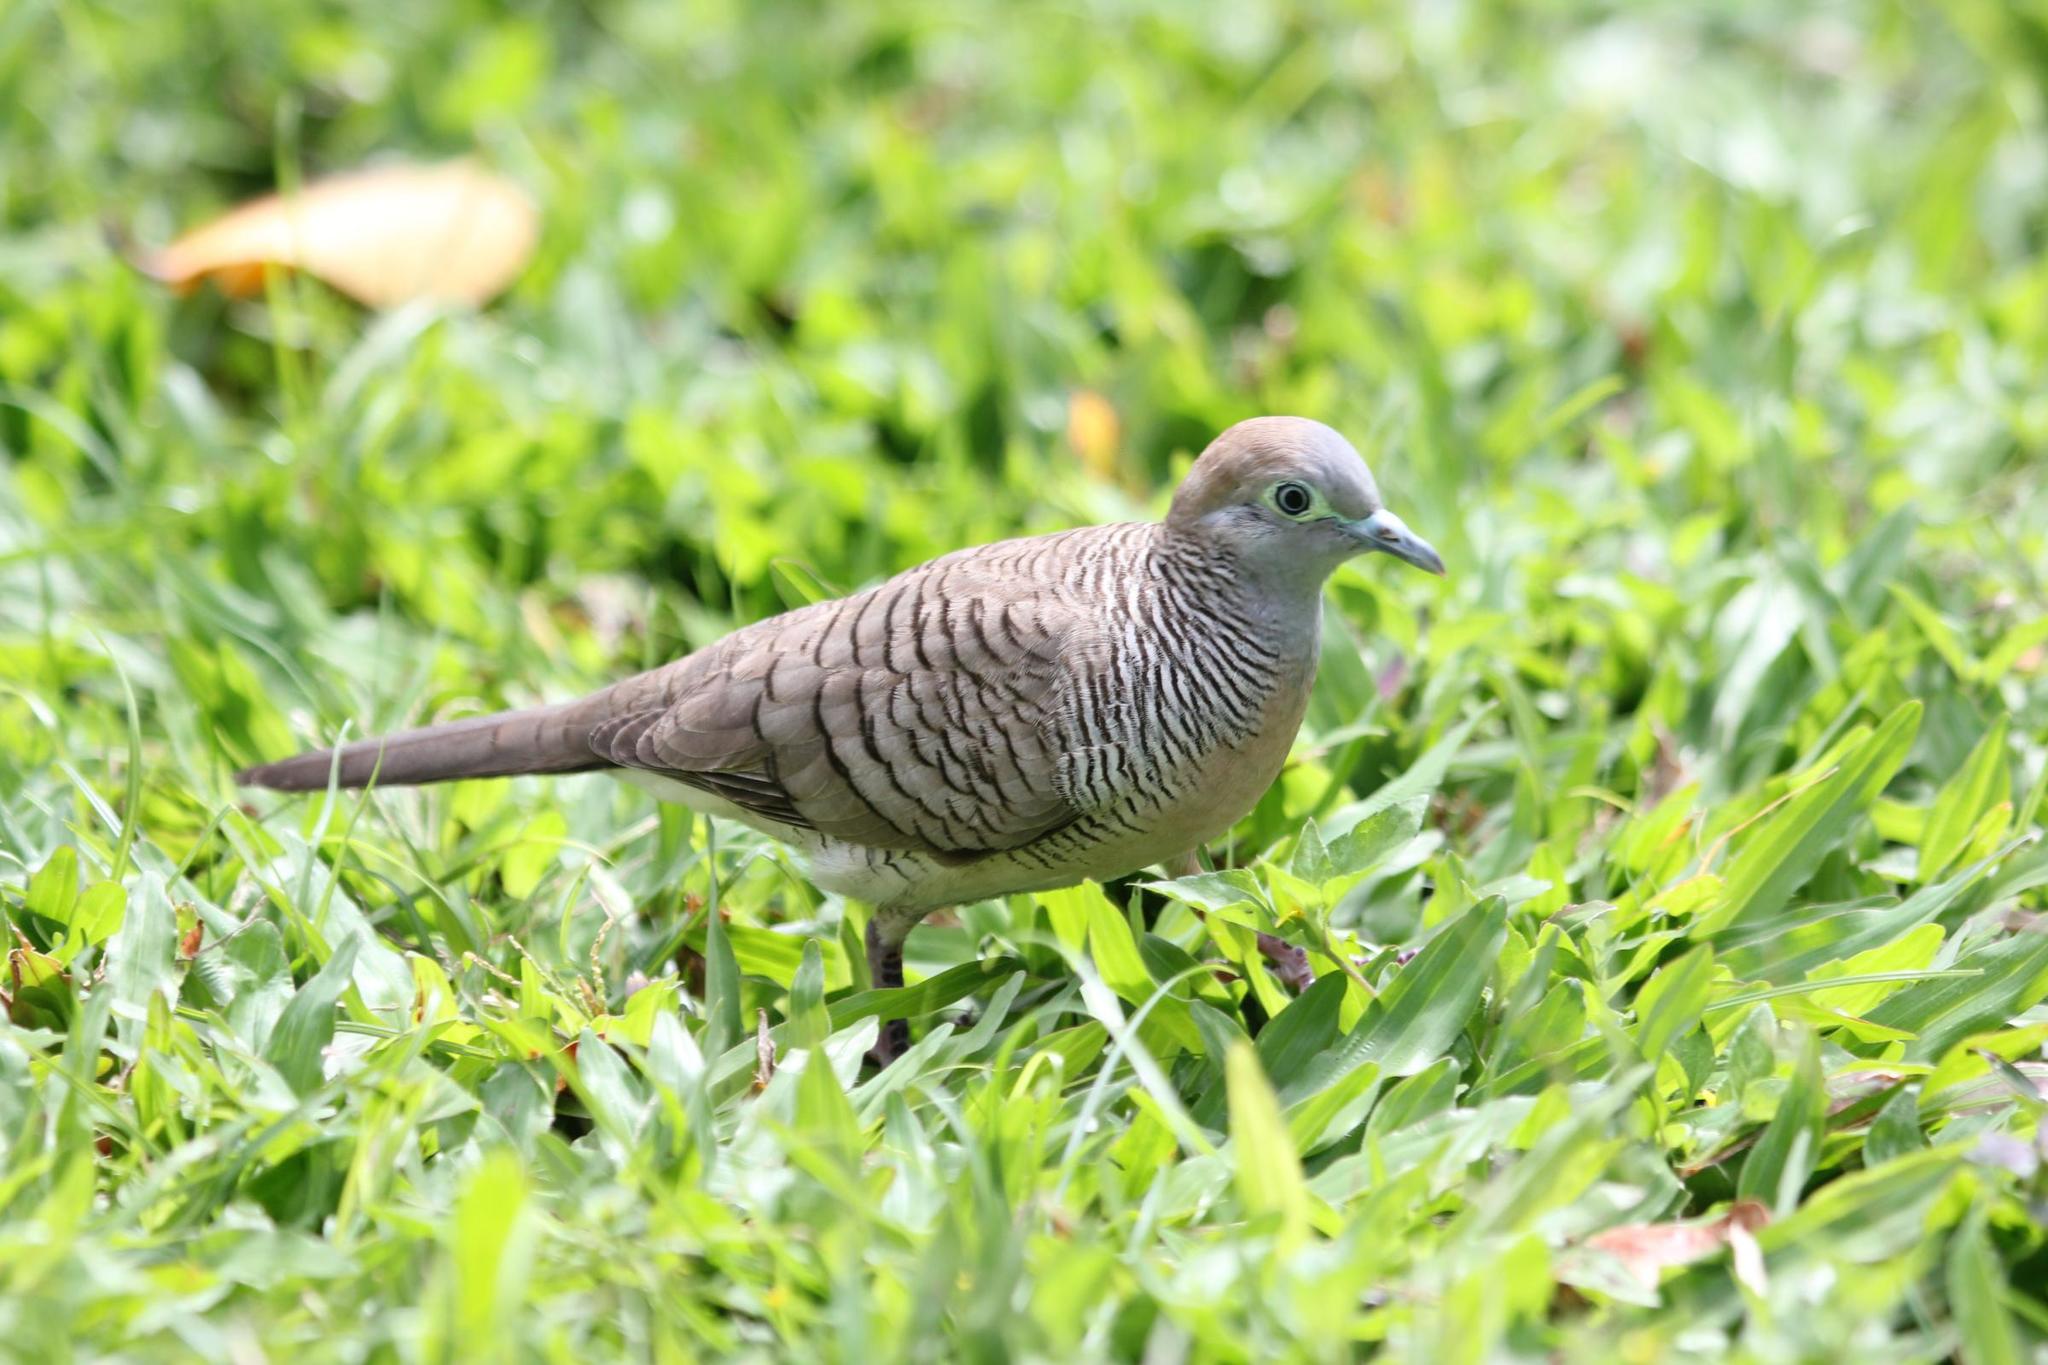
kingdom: Animalia
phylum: Chordata
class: Aves
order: Columbiformes
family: Columbidae
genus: Geopelia
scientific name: Geopelia striata
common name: Zebra dove
